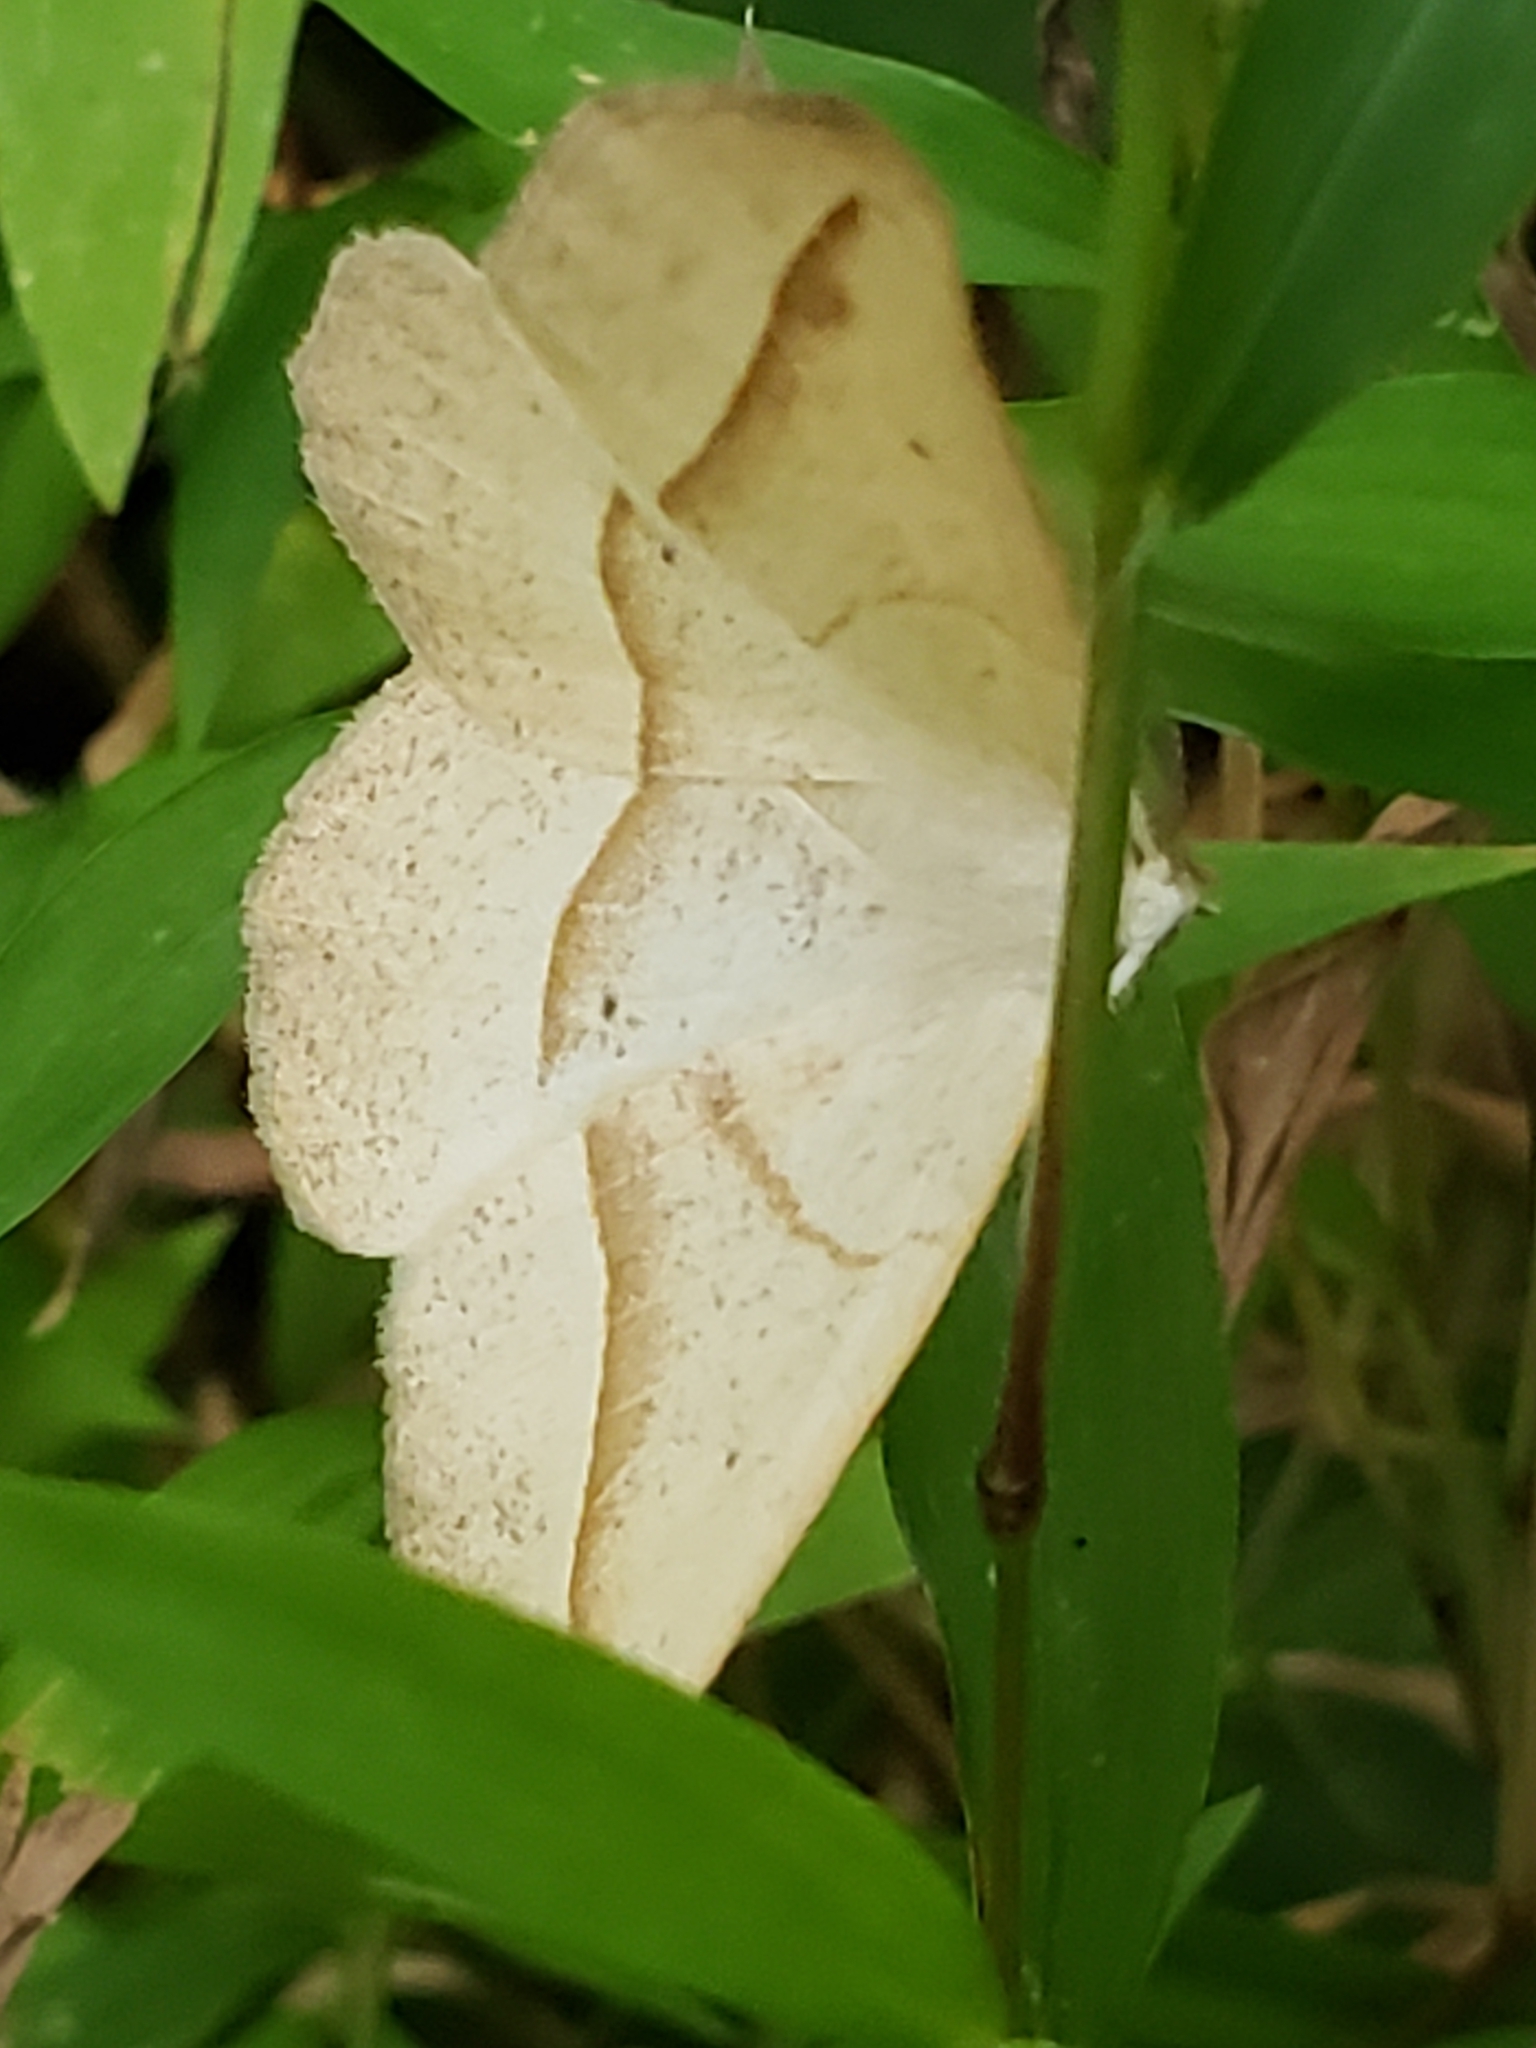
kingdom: Animalia
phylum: Arthropoda
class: Insecta
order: Lepidoptera
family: Geometridae
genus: Eusarca
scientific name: Eusarca confusaria
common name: Confused eusarca
